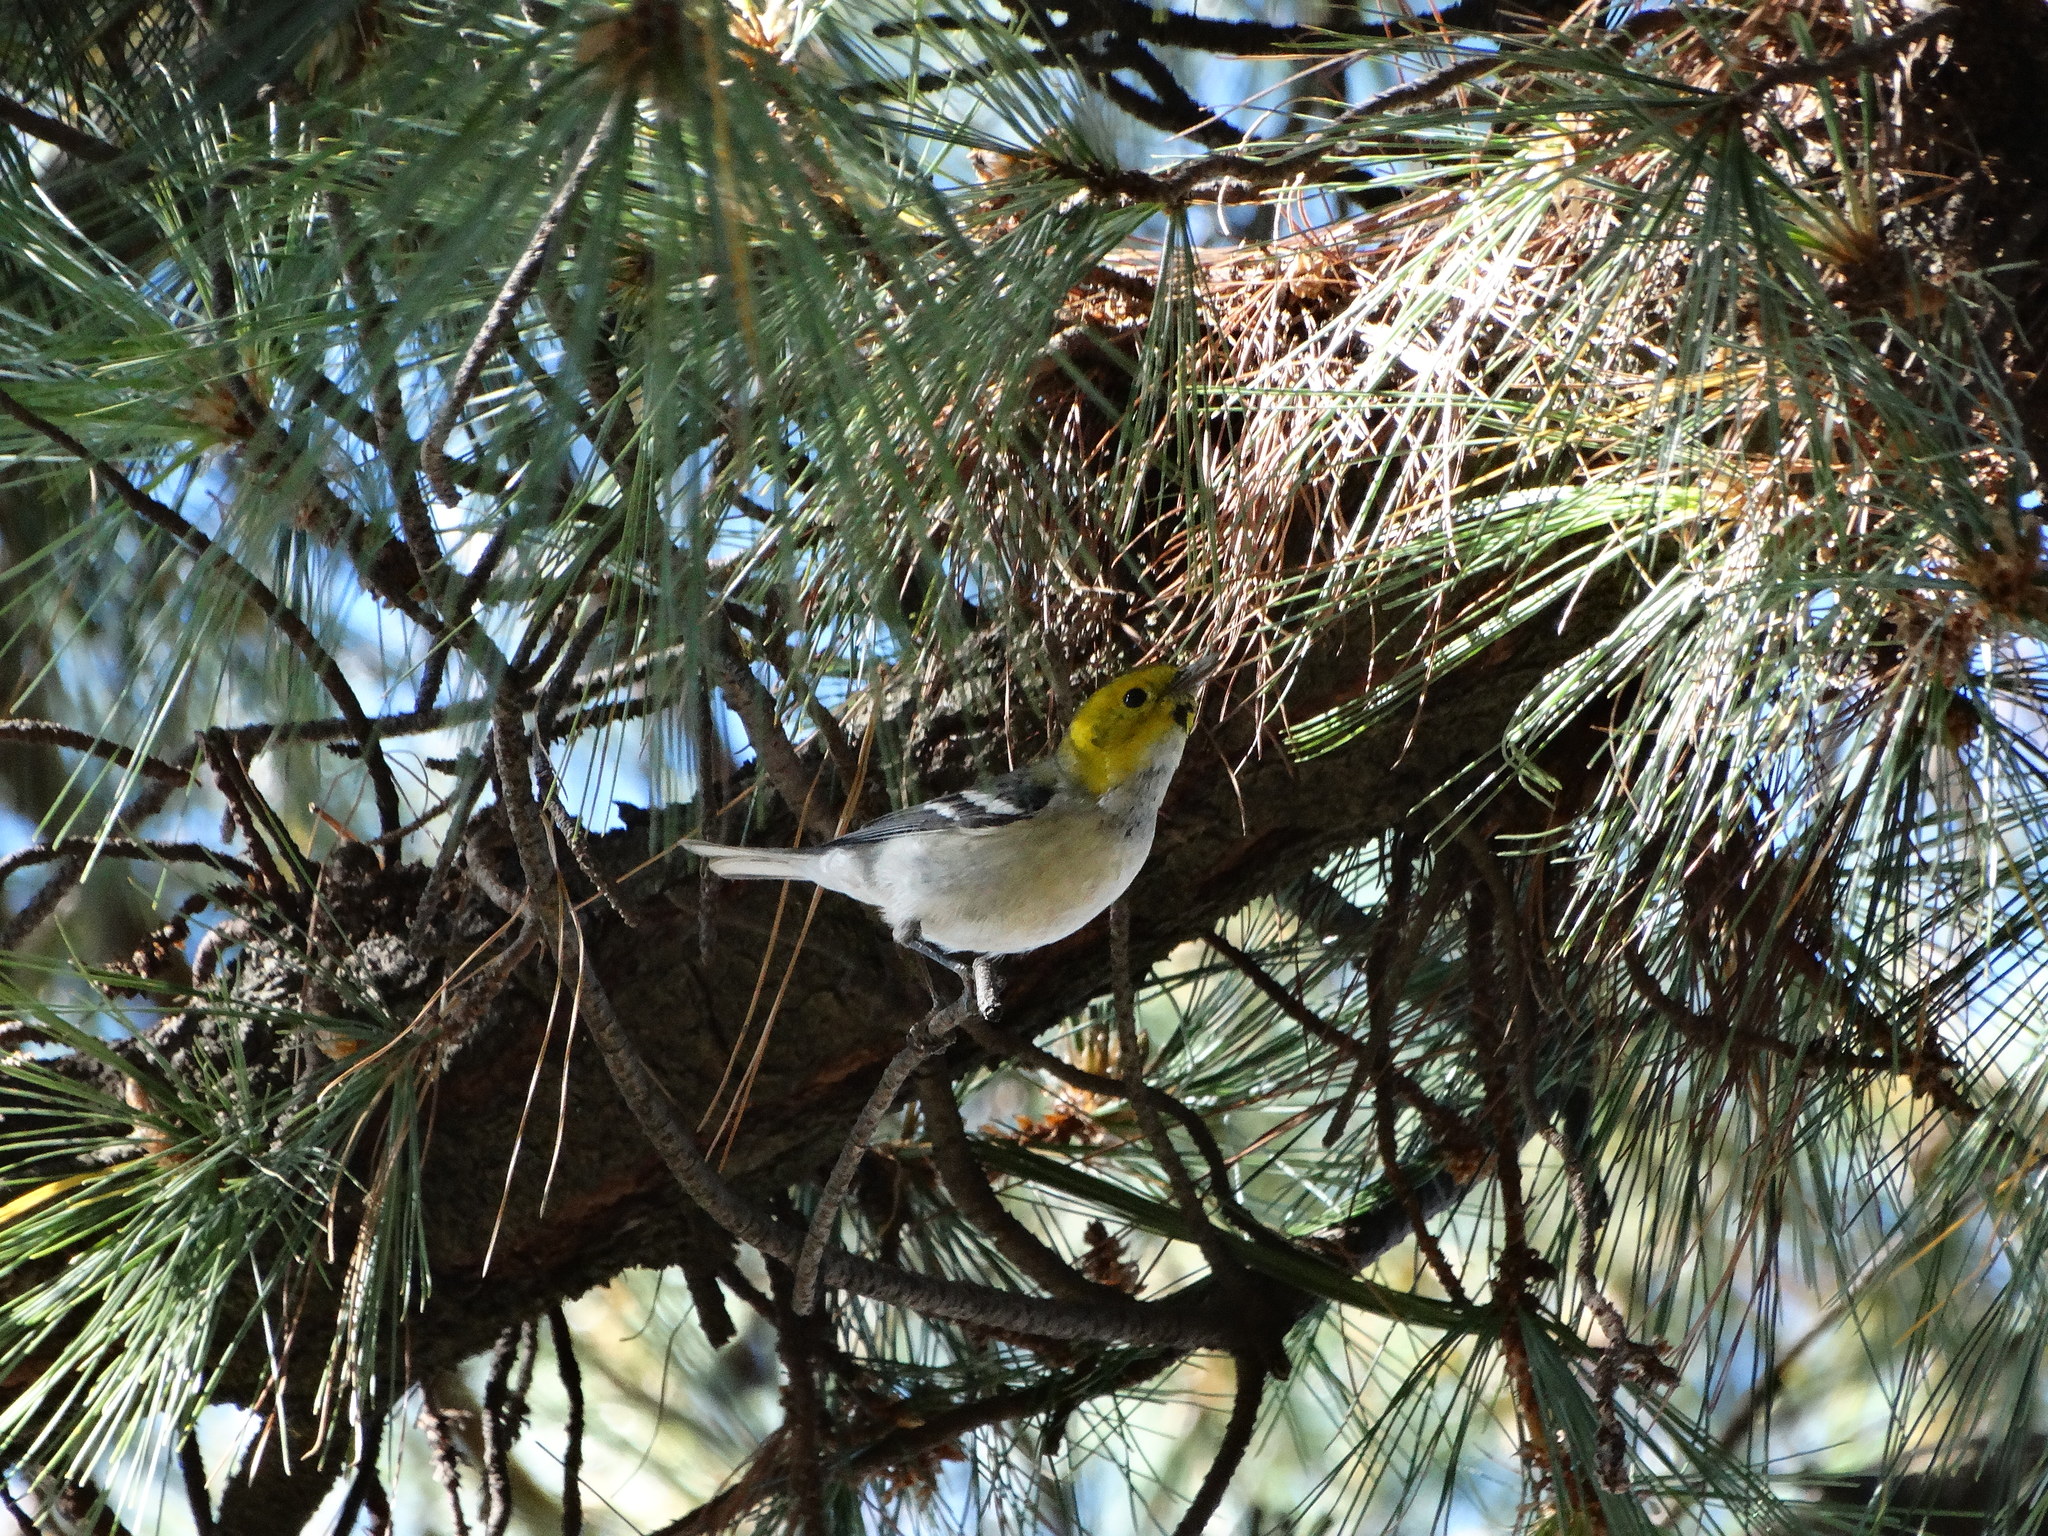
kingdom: Animalia
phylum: Chordata
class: Aves
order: Passeriformes
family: Parulidae
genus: Setophaga
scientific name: Setophaga occidentalis
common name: Hermit warbler
